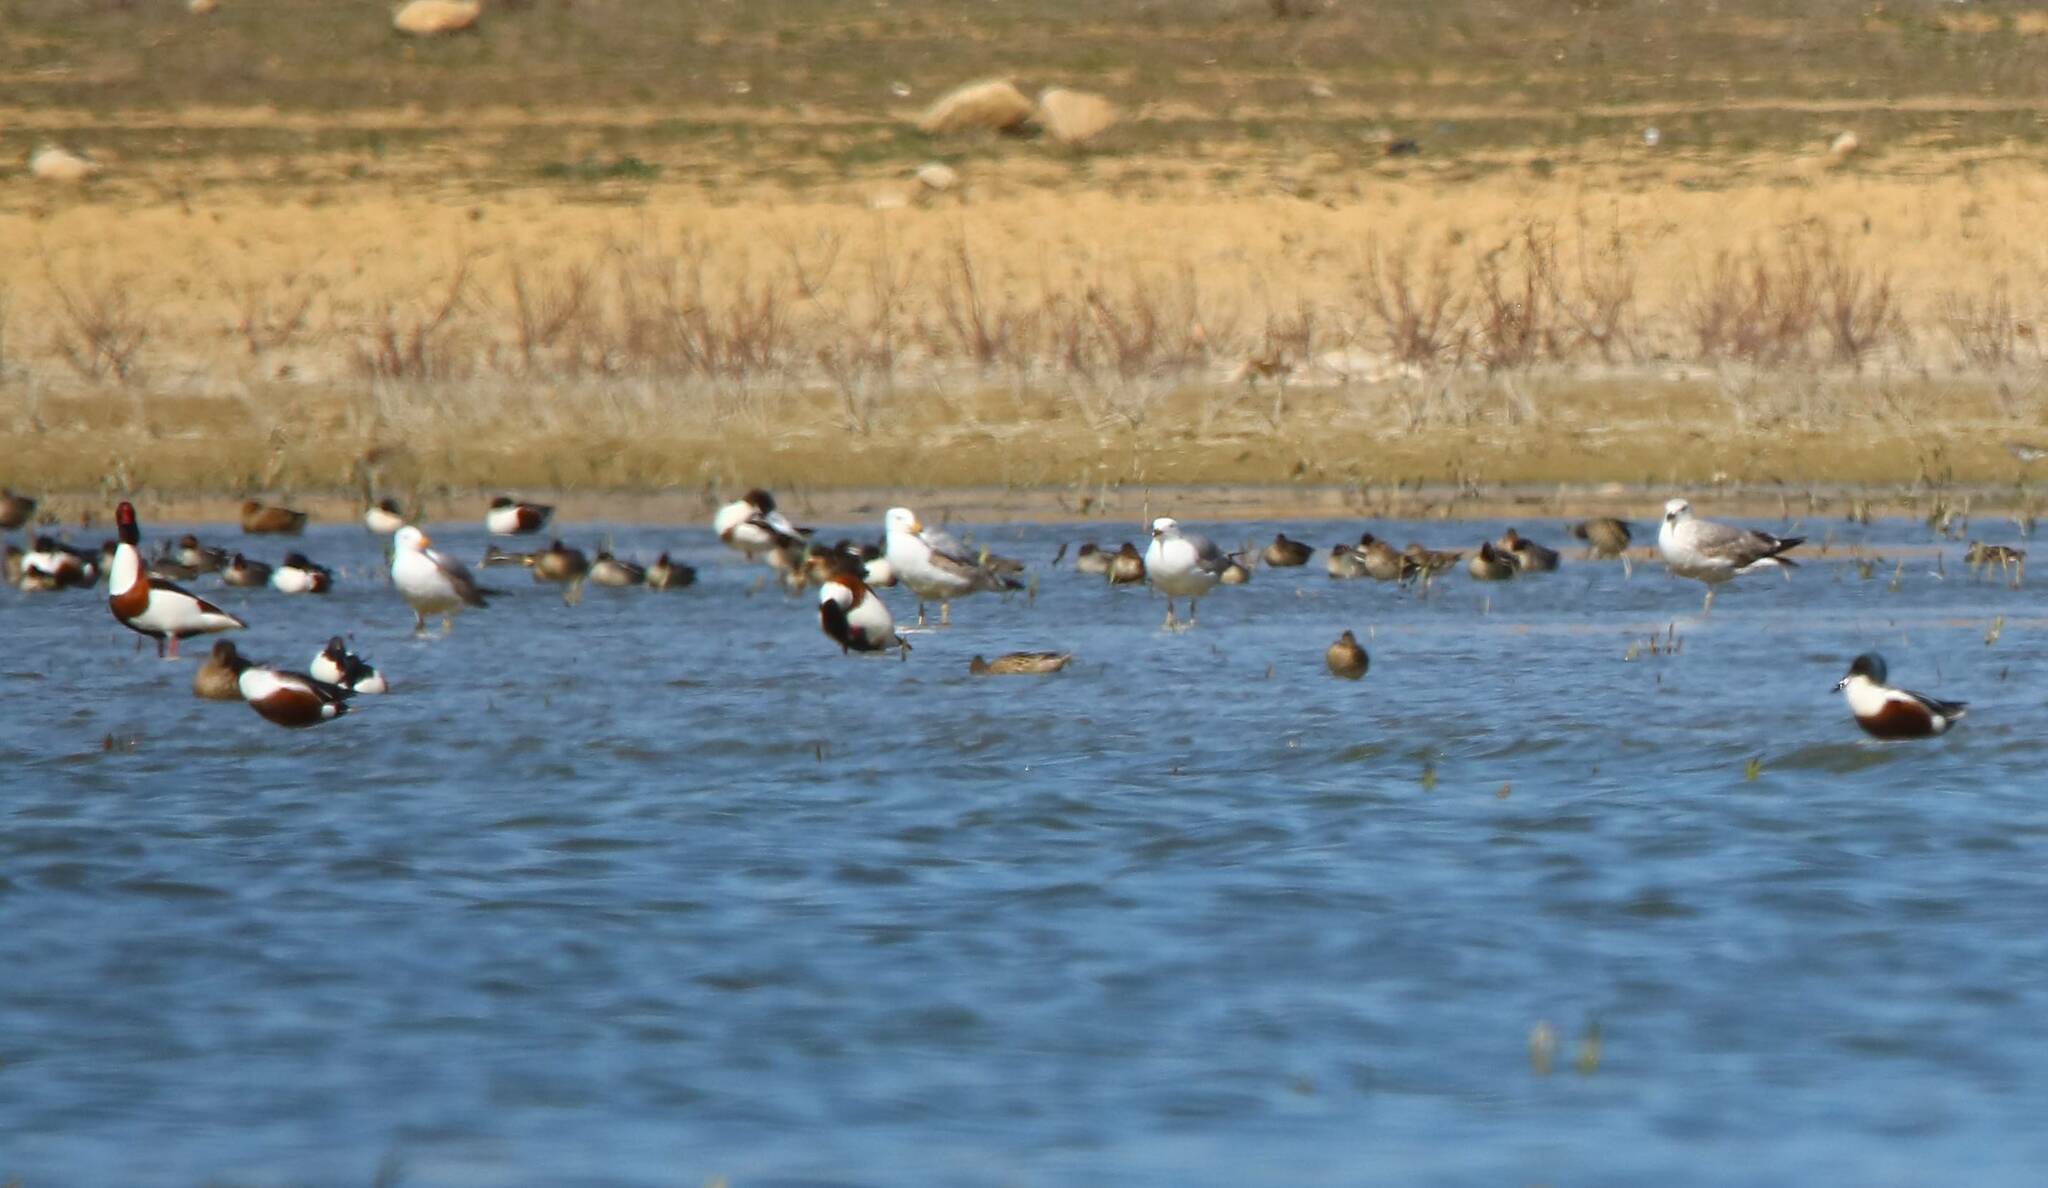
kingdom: Animalia
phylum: Chordata
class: Aves
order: Anseriformes
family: Anatidae
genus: Spatula
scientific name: Spatula clypeata
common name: Northern shoveler
